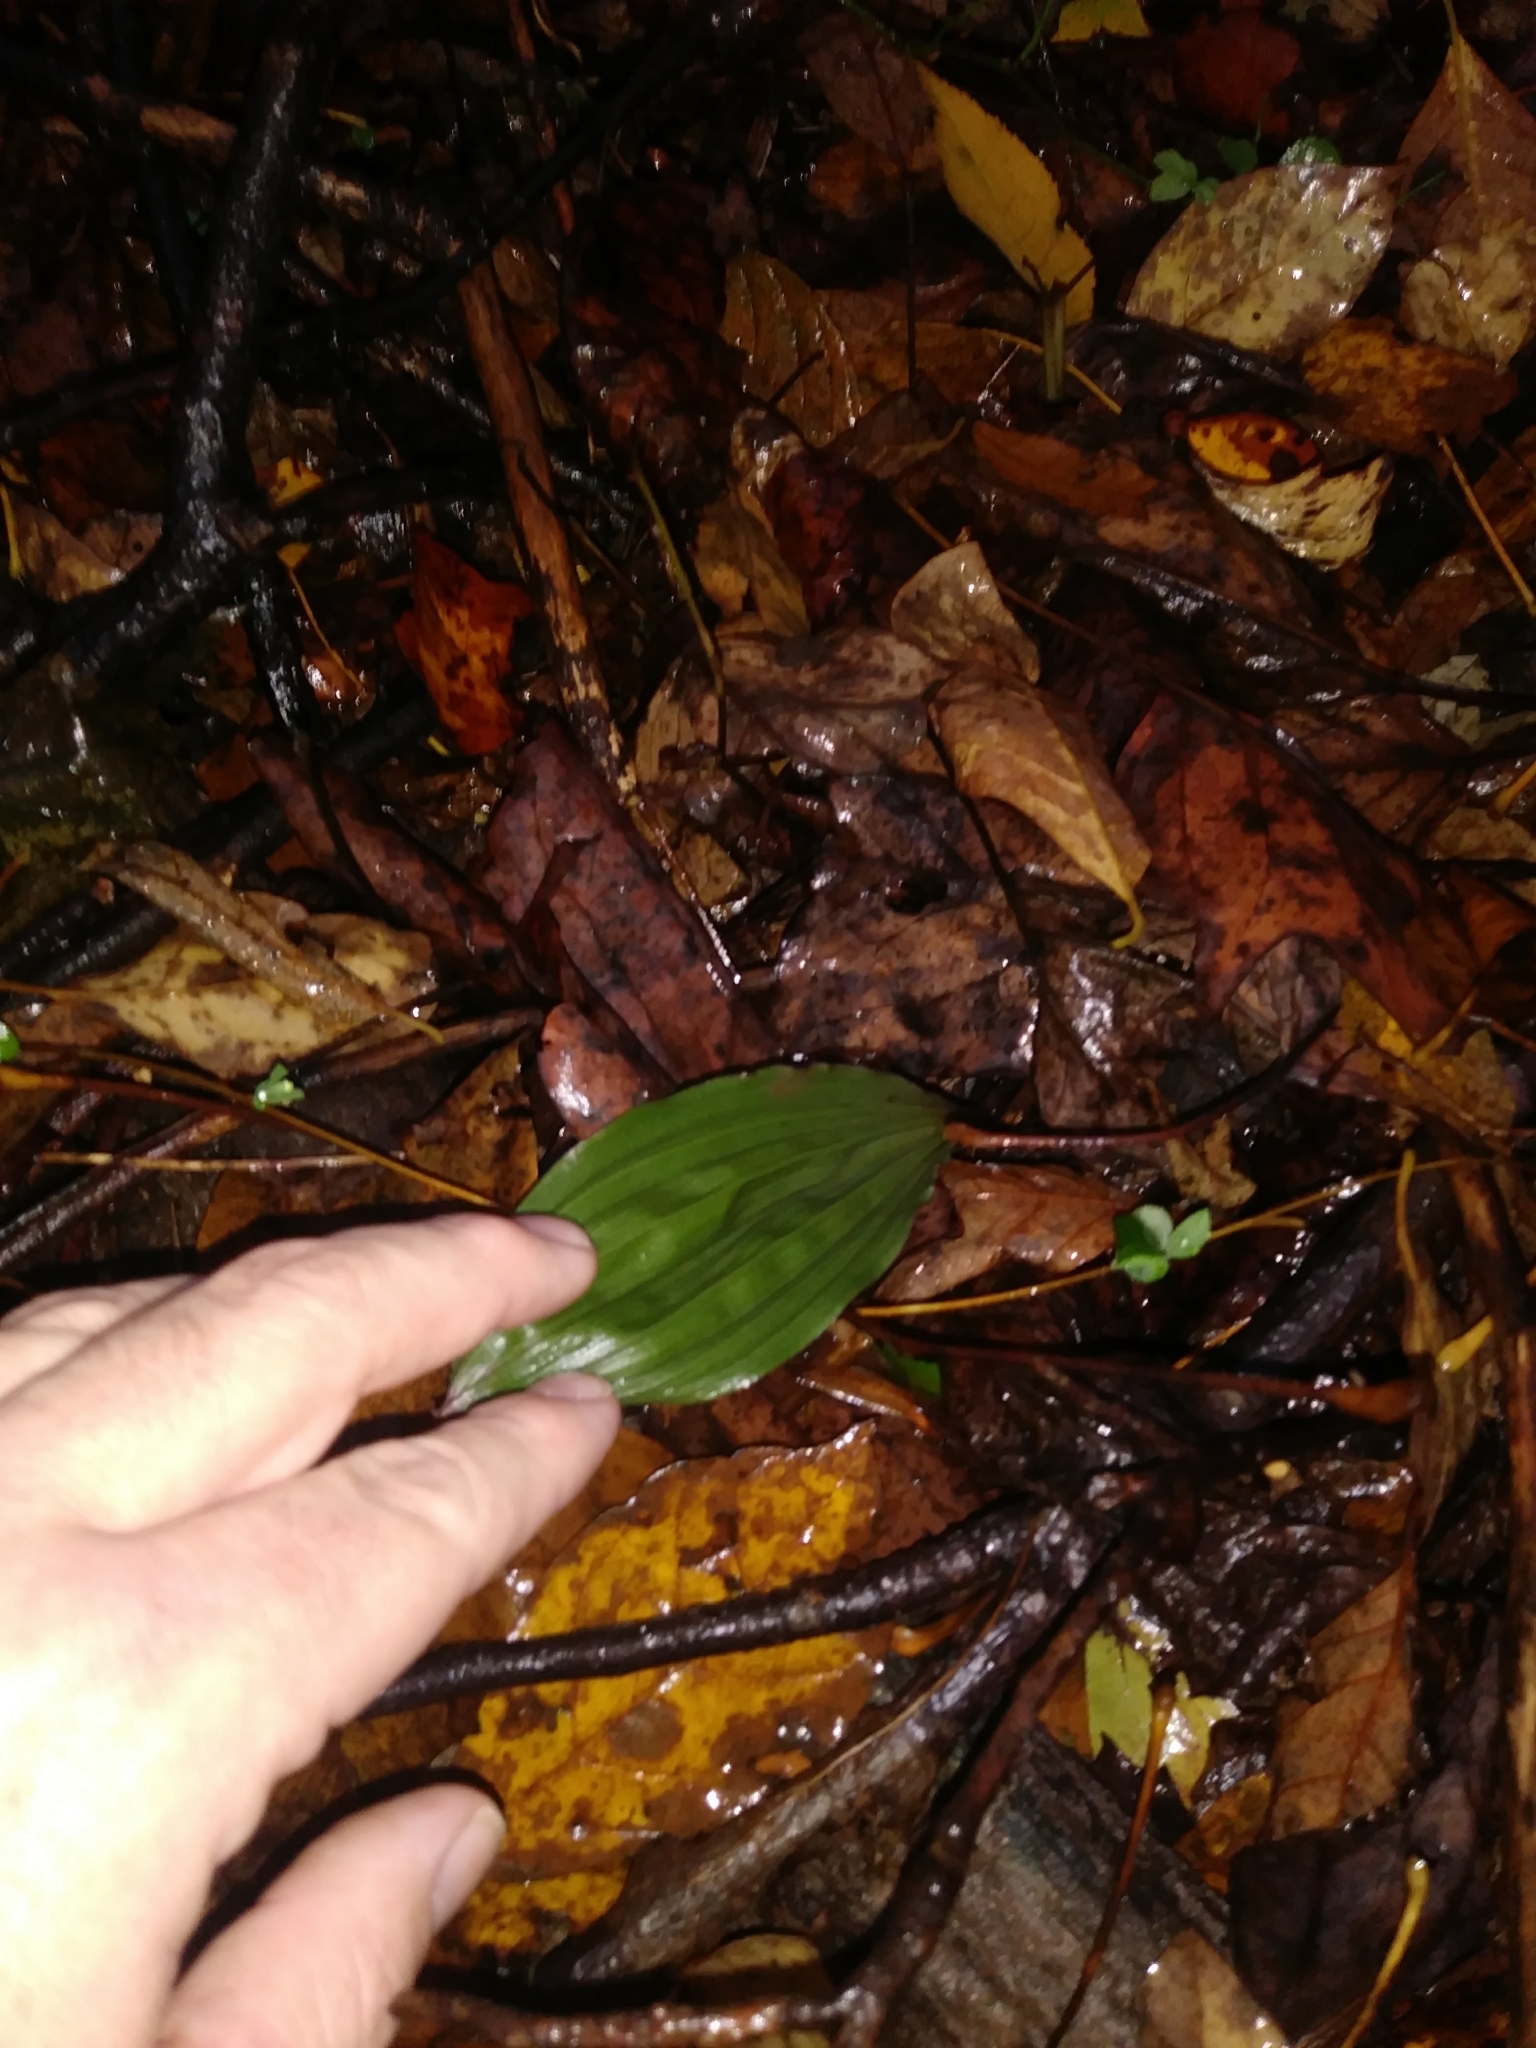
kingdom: Plantae
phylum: Tracheophyta
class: Liliopsida
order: Asparagales
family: Orchidaceae
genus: Aplectrum
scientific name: Aplectrum hyemale
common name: Adam-and-eve
